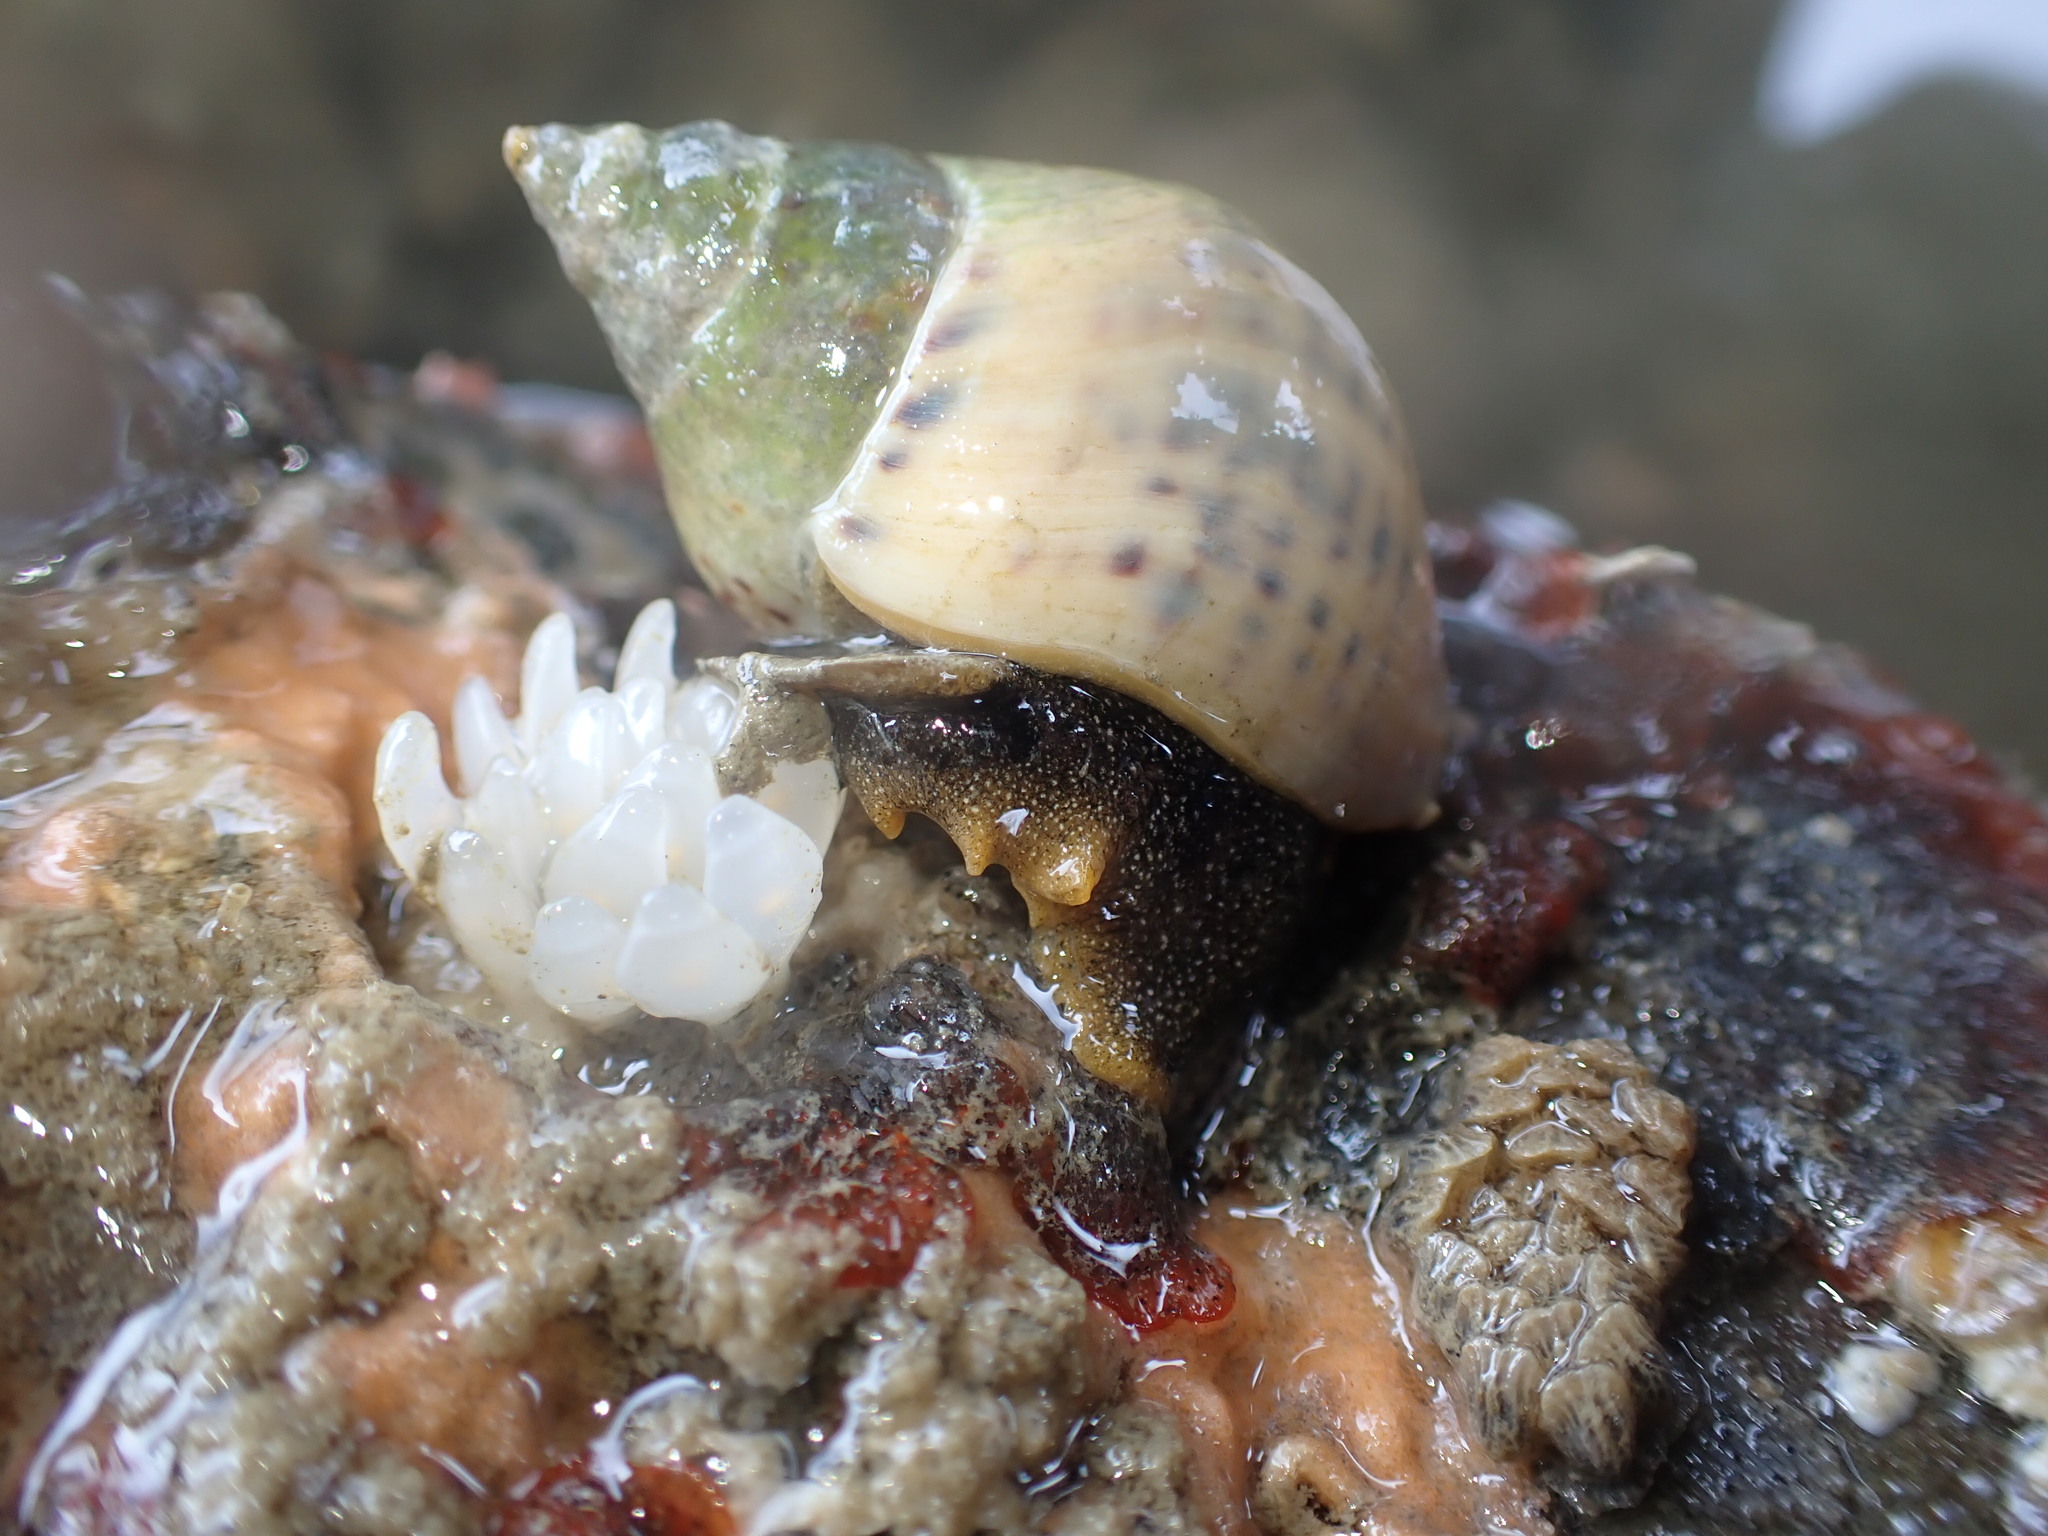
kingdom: Animalia
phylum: Mollusca
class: Gastropoda
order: Neogastropoda
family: Cominellidae
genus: Cominella
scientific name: Cominella adspersa
